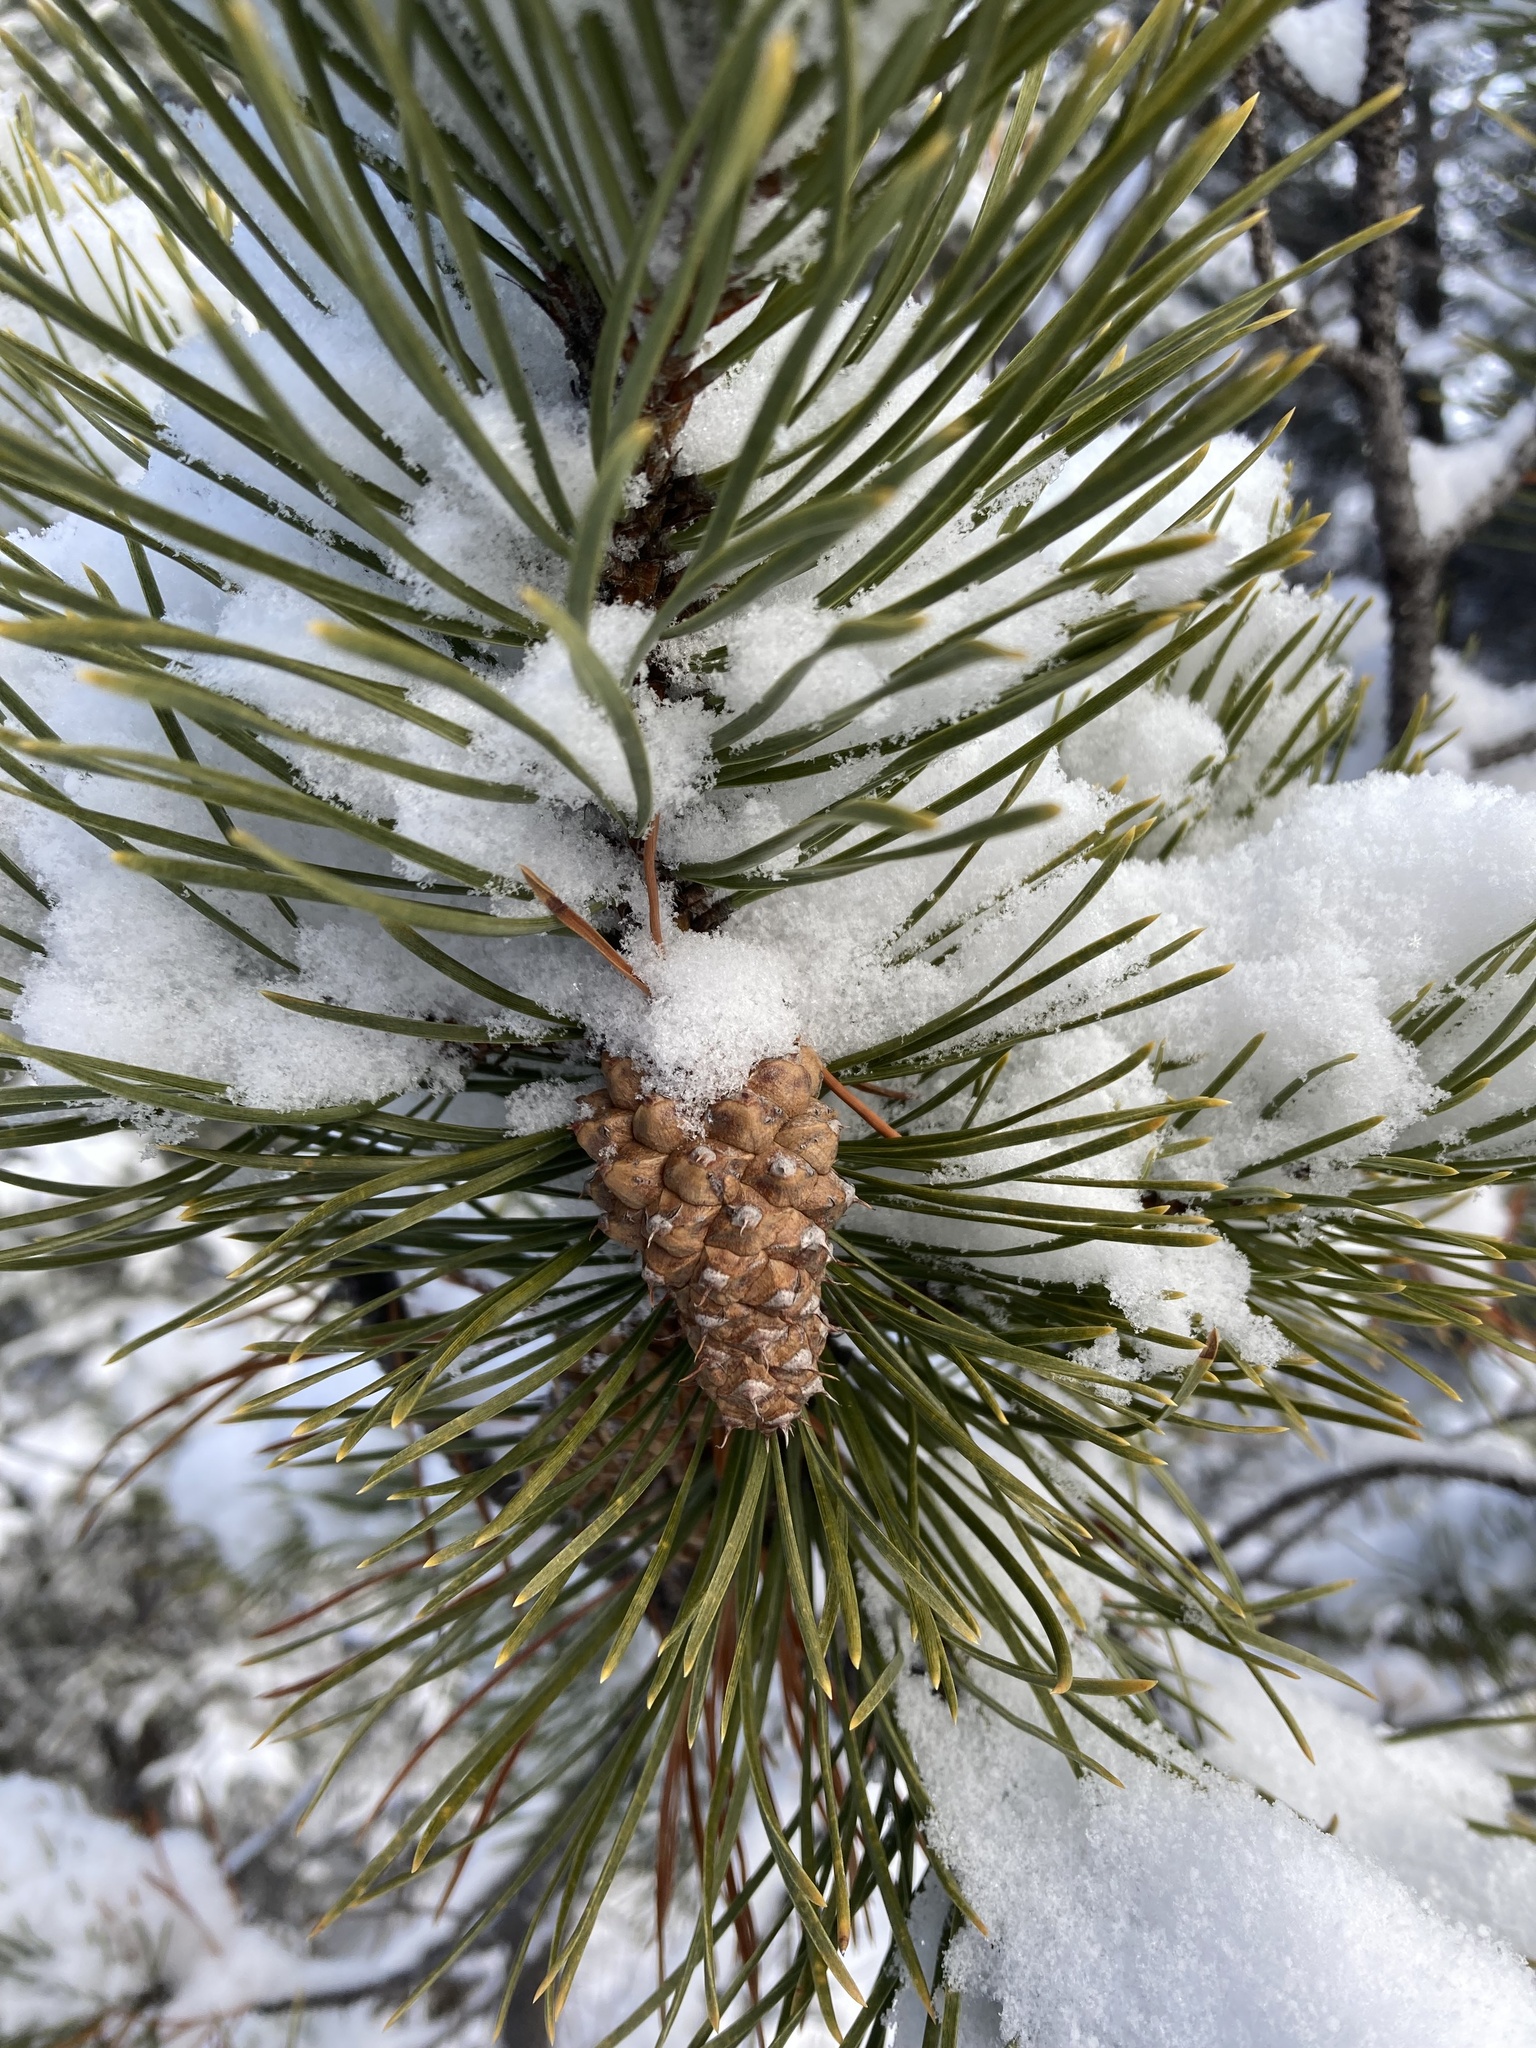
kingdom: Plantae
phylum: Tracheophyta
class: Pinopsida
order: Pinales
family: Pinaceae
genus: Pinus
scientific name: Pinus contorta
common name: Lodgepole pine
